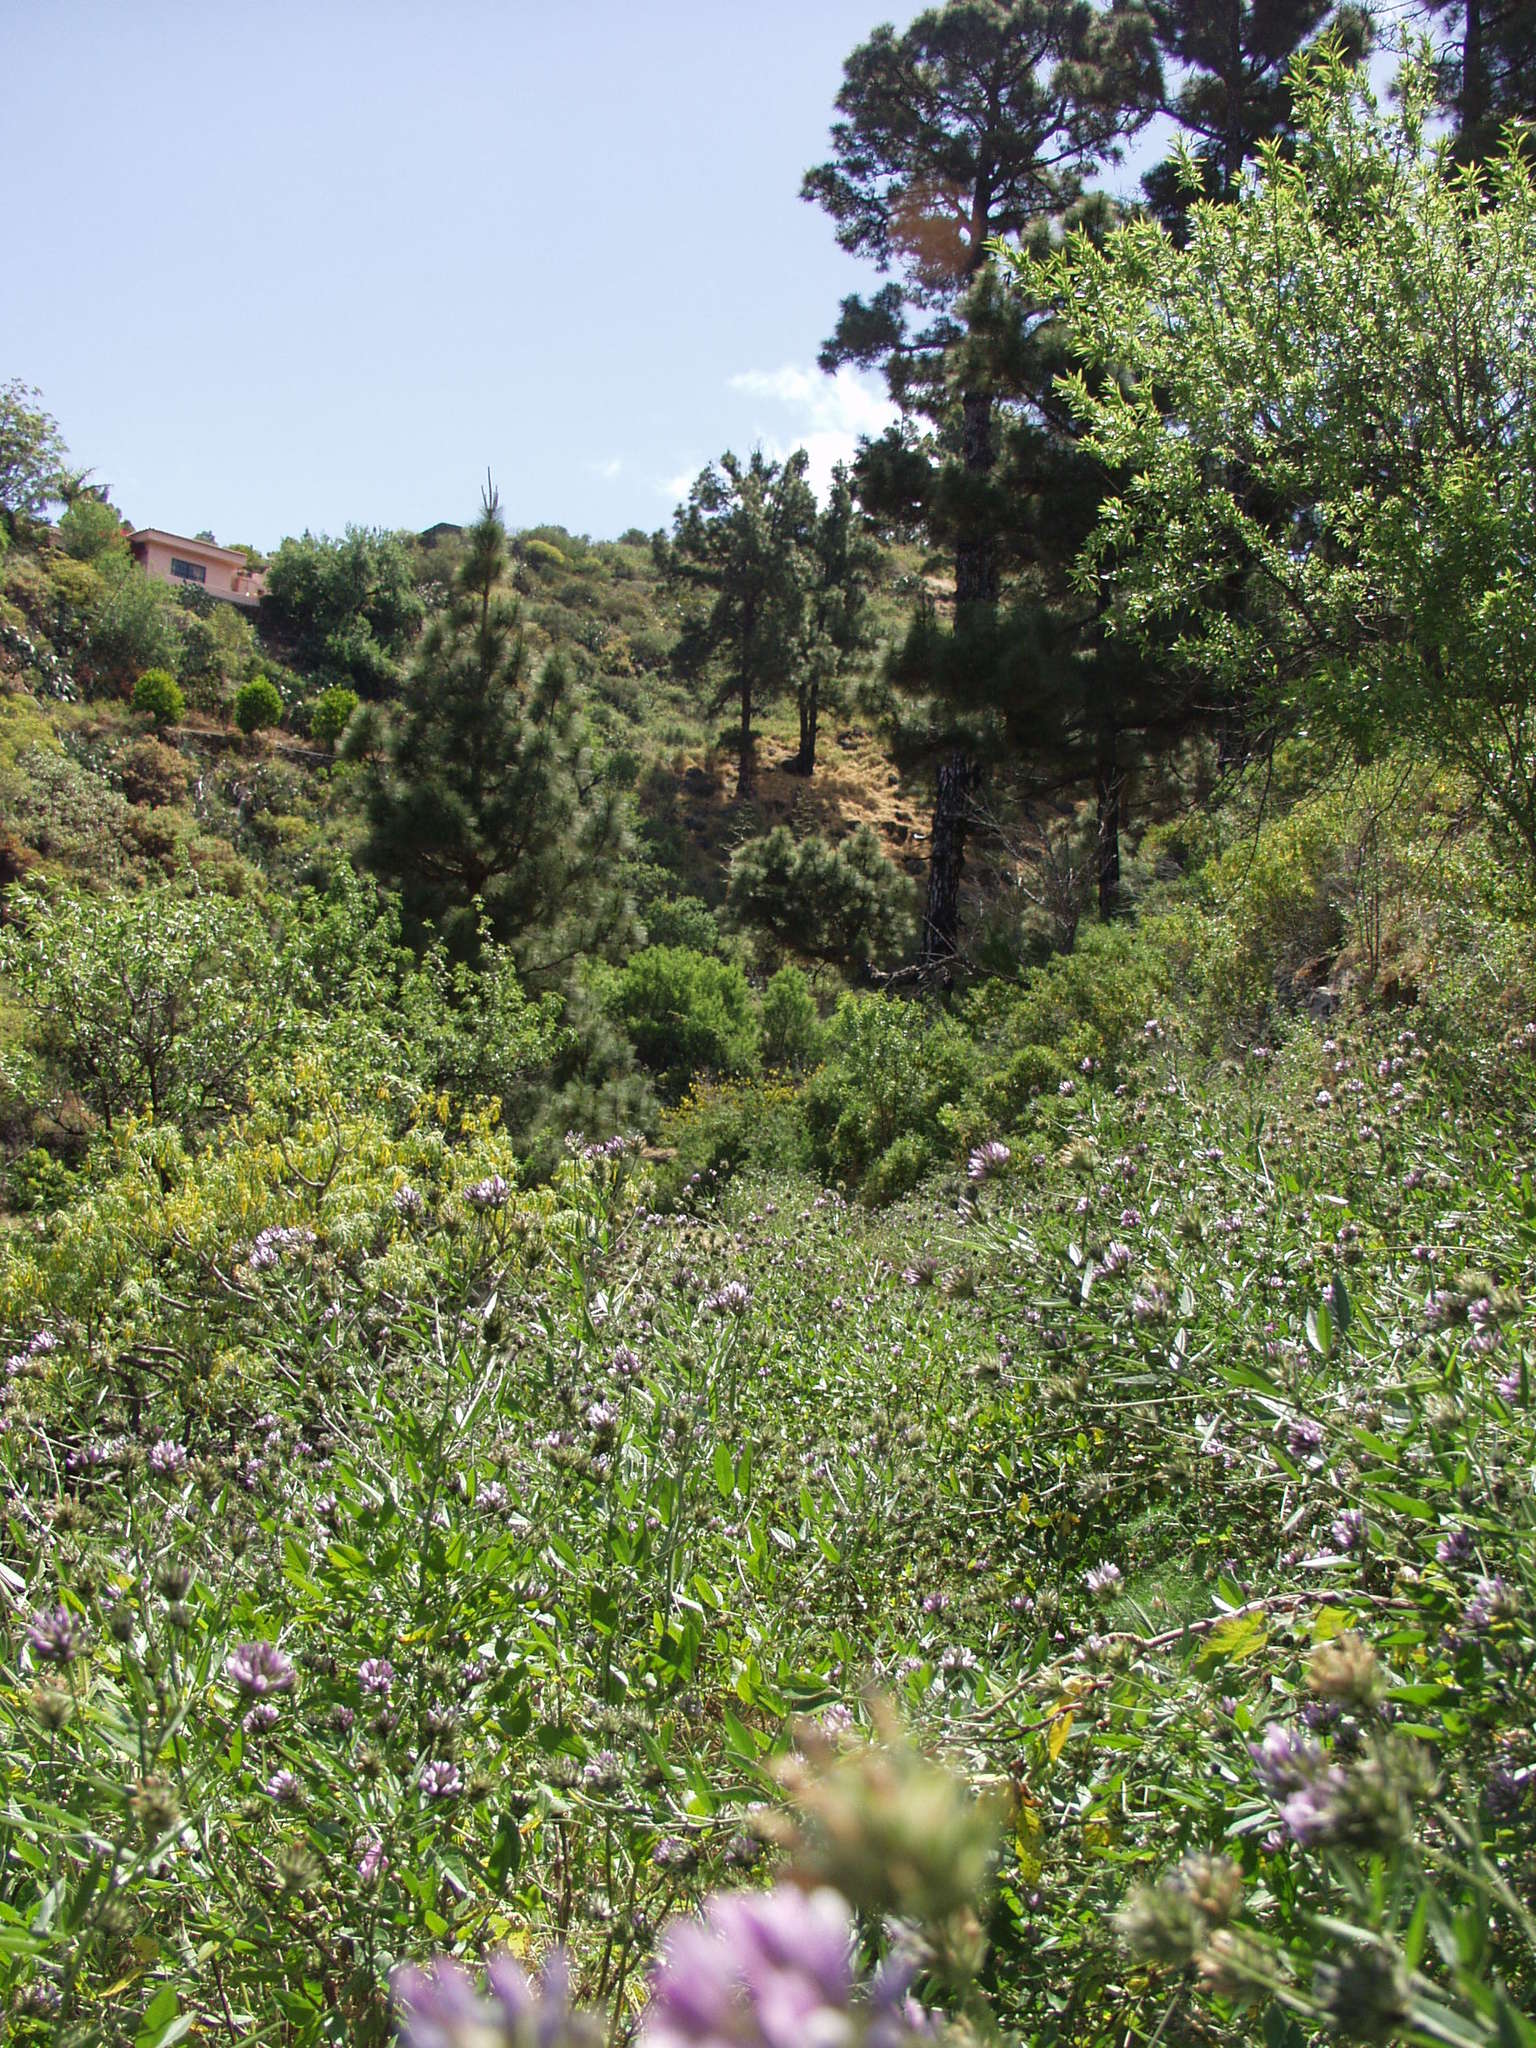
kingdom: Plantae
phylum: Tracheophyta
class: Magnoliopsida
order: Fabales
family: Fabaceae
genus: Bituminaria
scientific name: Bituminaria bituminosa
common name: Arabian pea
